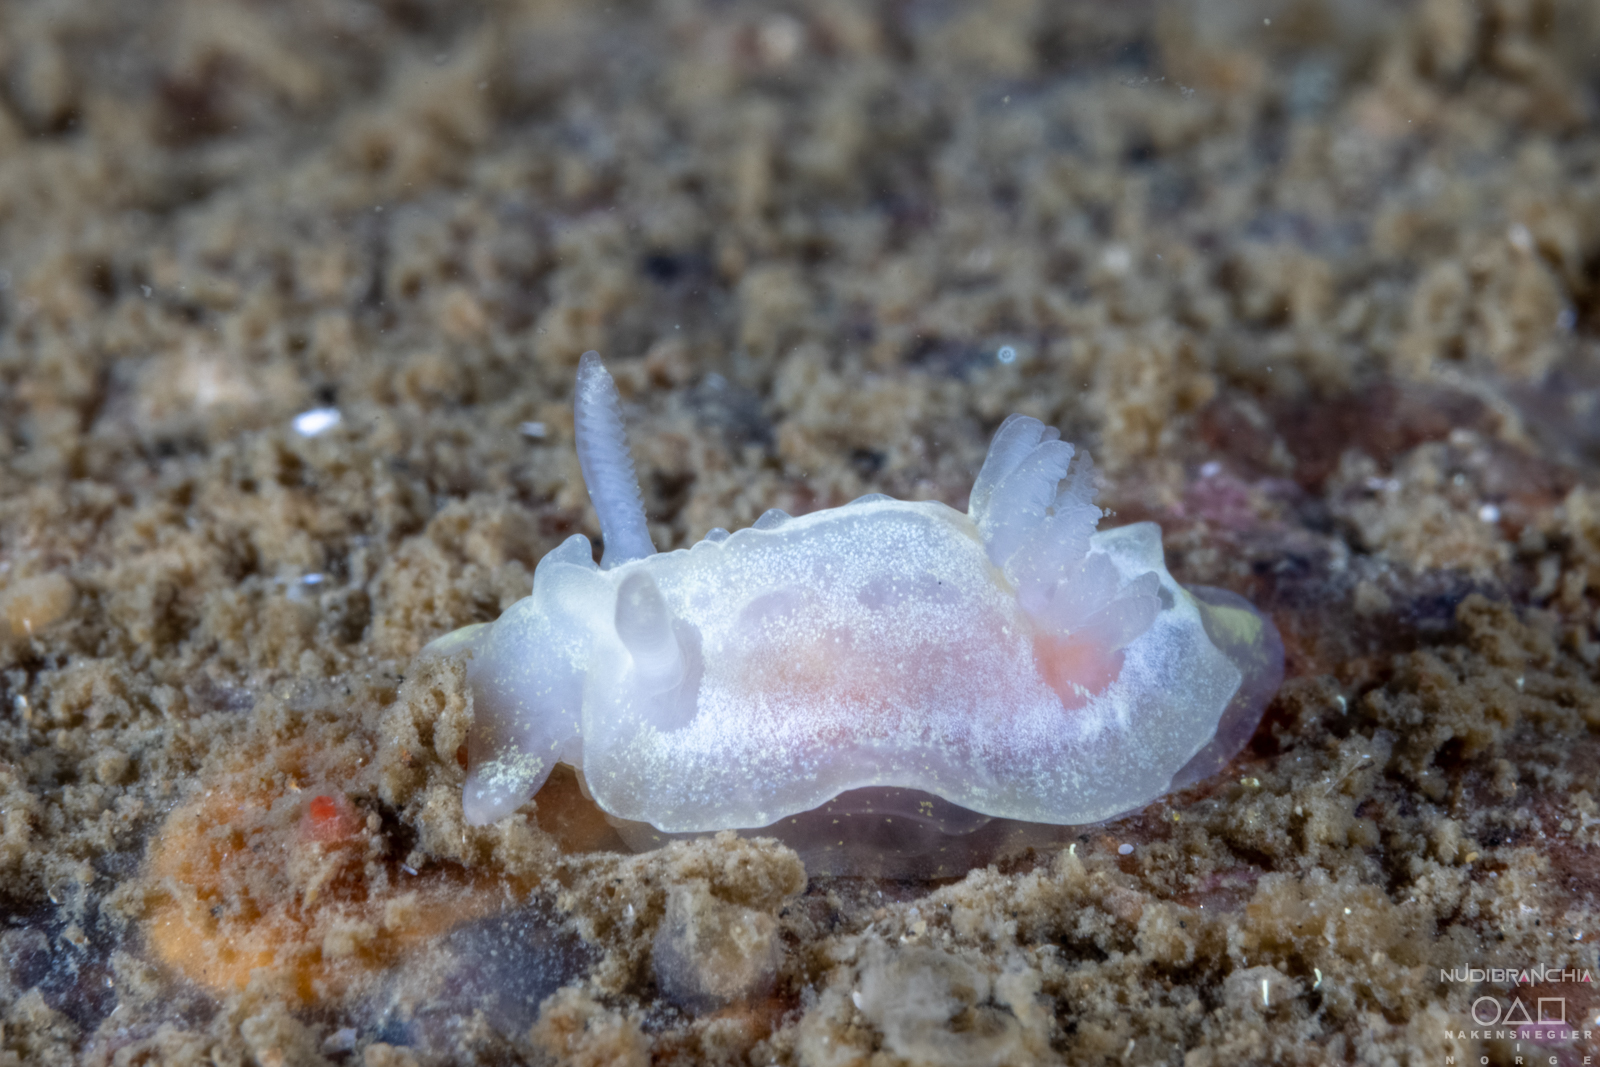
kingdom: Animalia
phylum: Mollusca
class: Gastropoda
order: Nudibranchia
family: Goniodorididae
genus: Okenia
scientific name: Okenia
